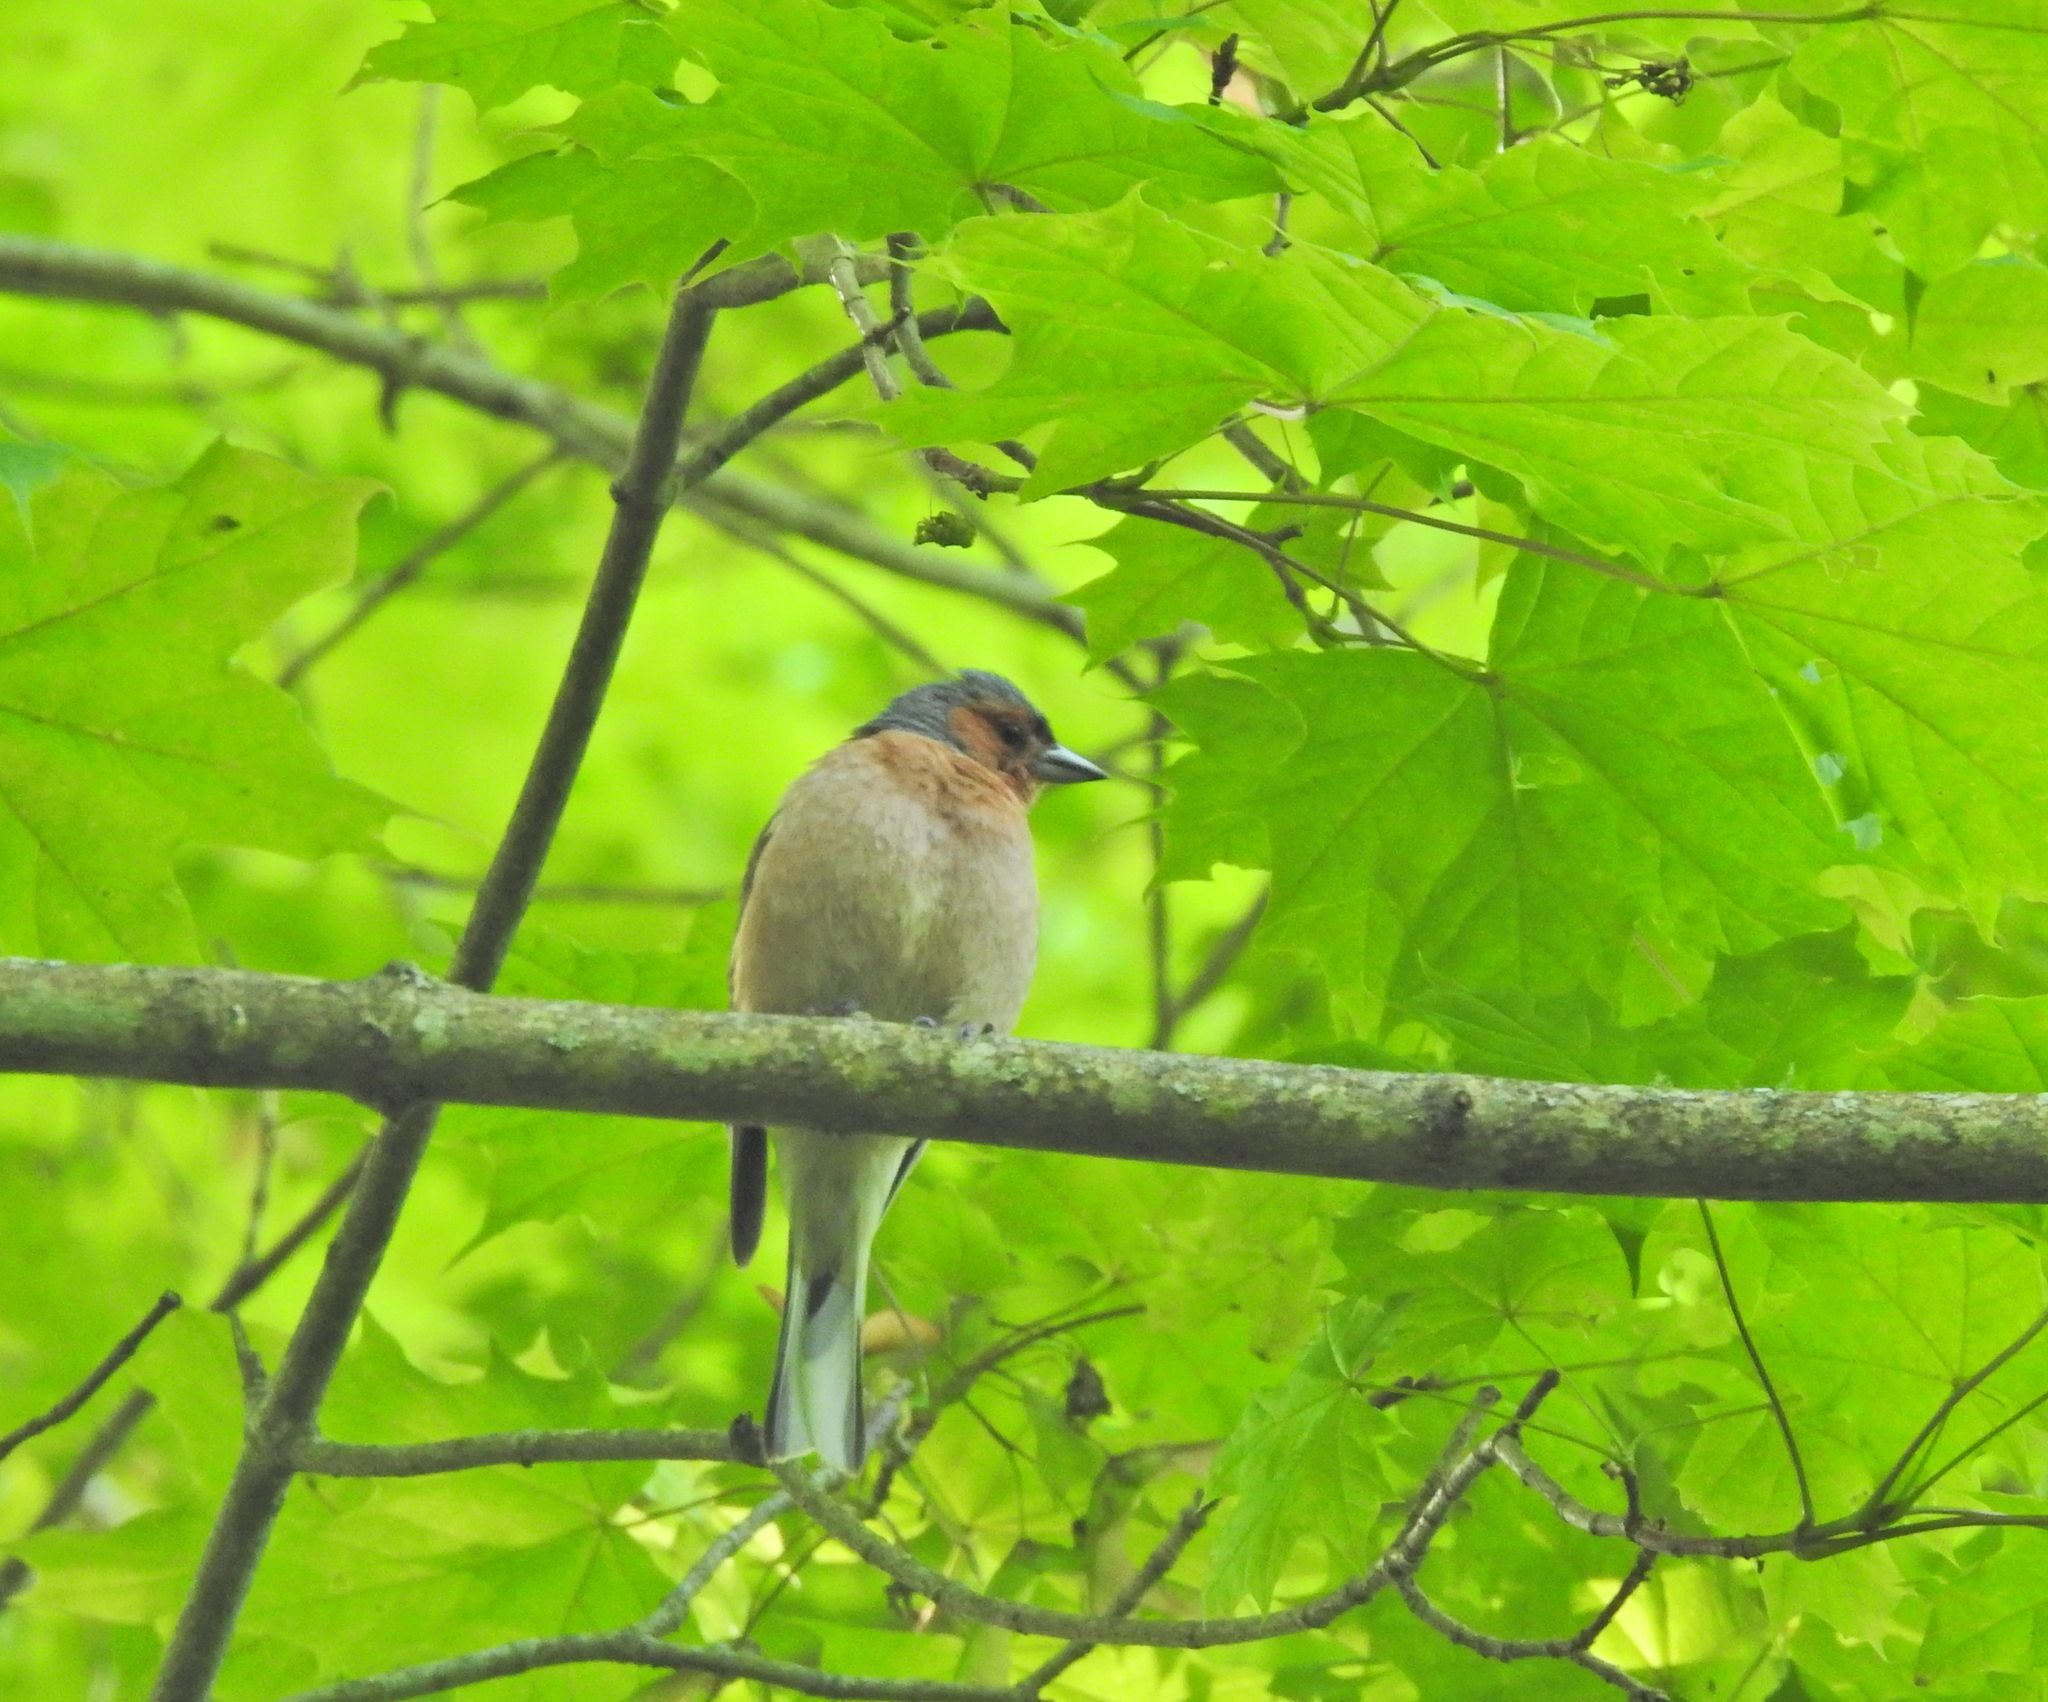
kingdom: Animalia
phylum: Chordata
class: Aves
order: Passeriformes
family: Fringillidae
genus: Fringilla
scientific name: Fringilla coelebs
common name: Common chaffinch
